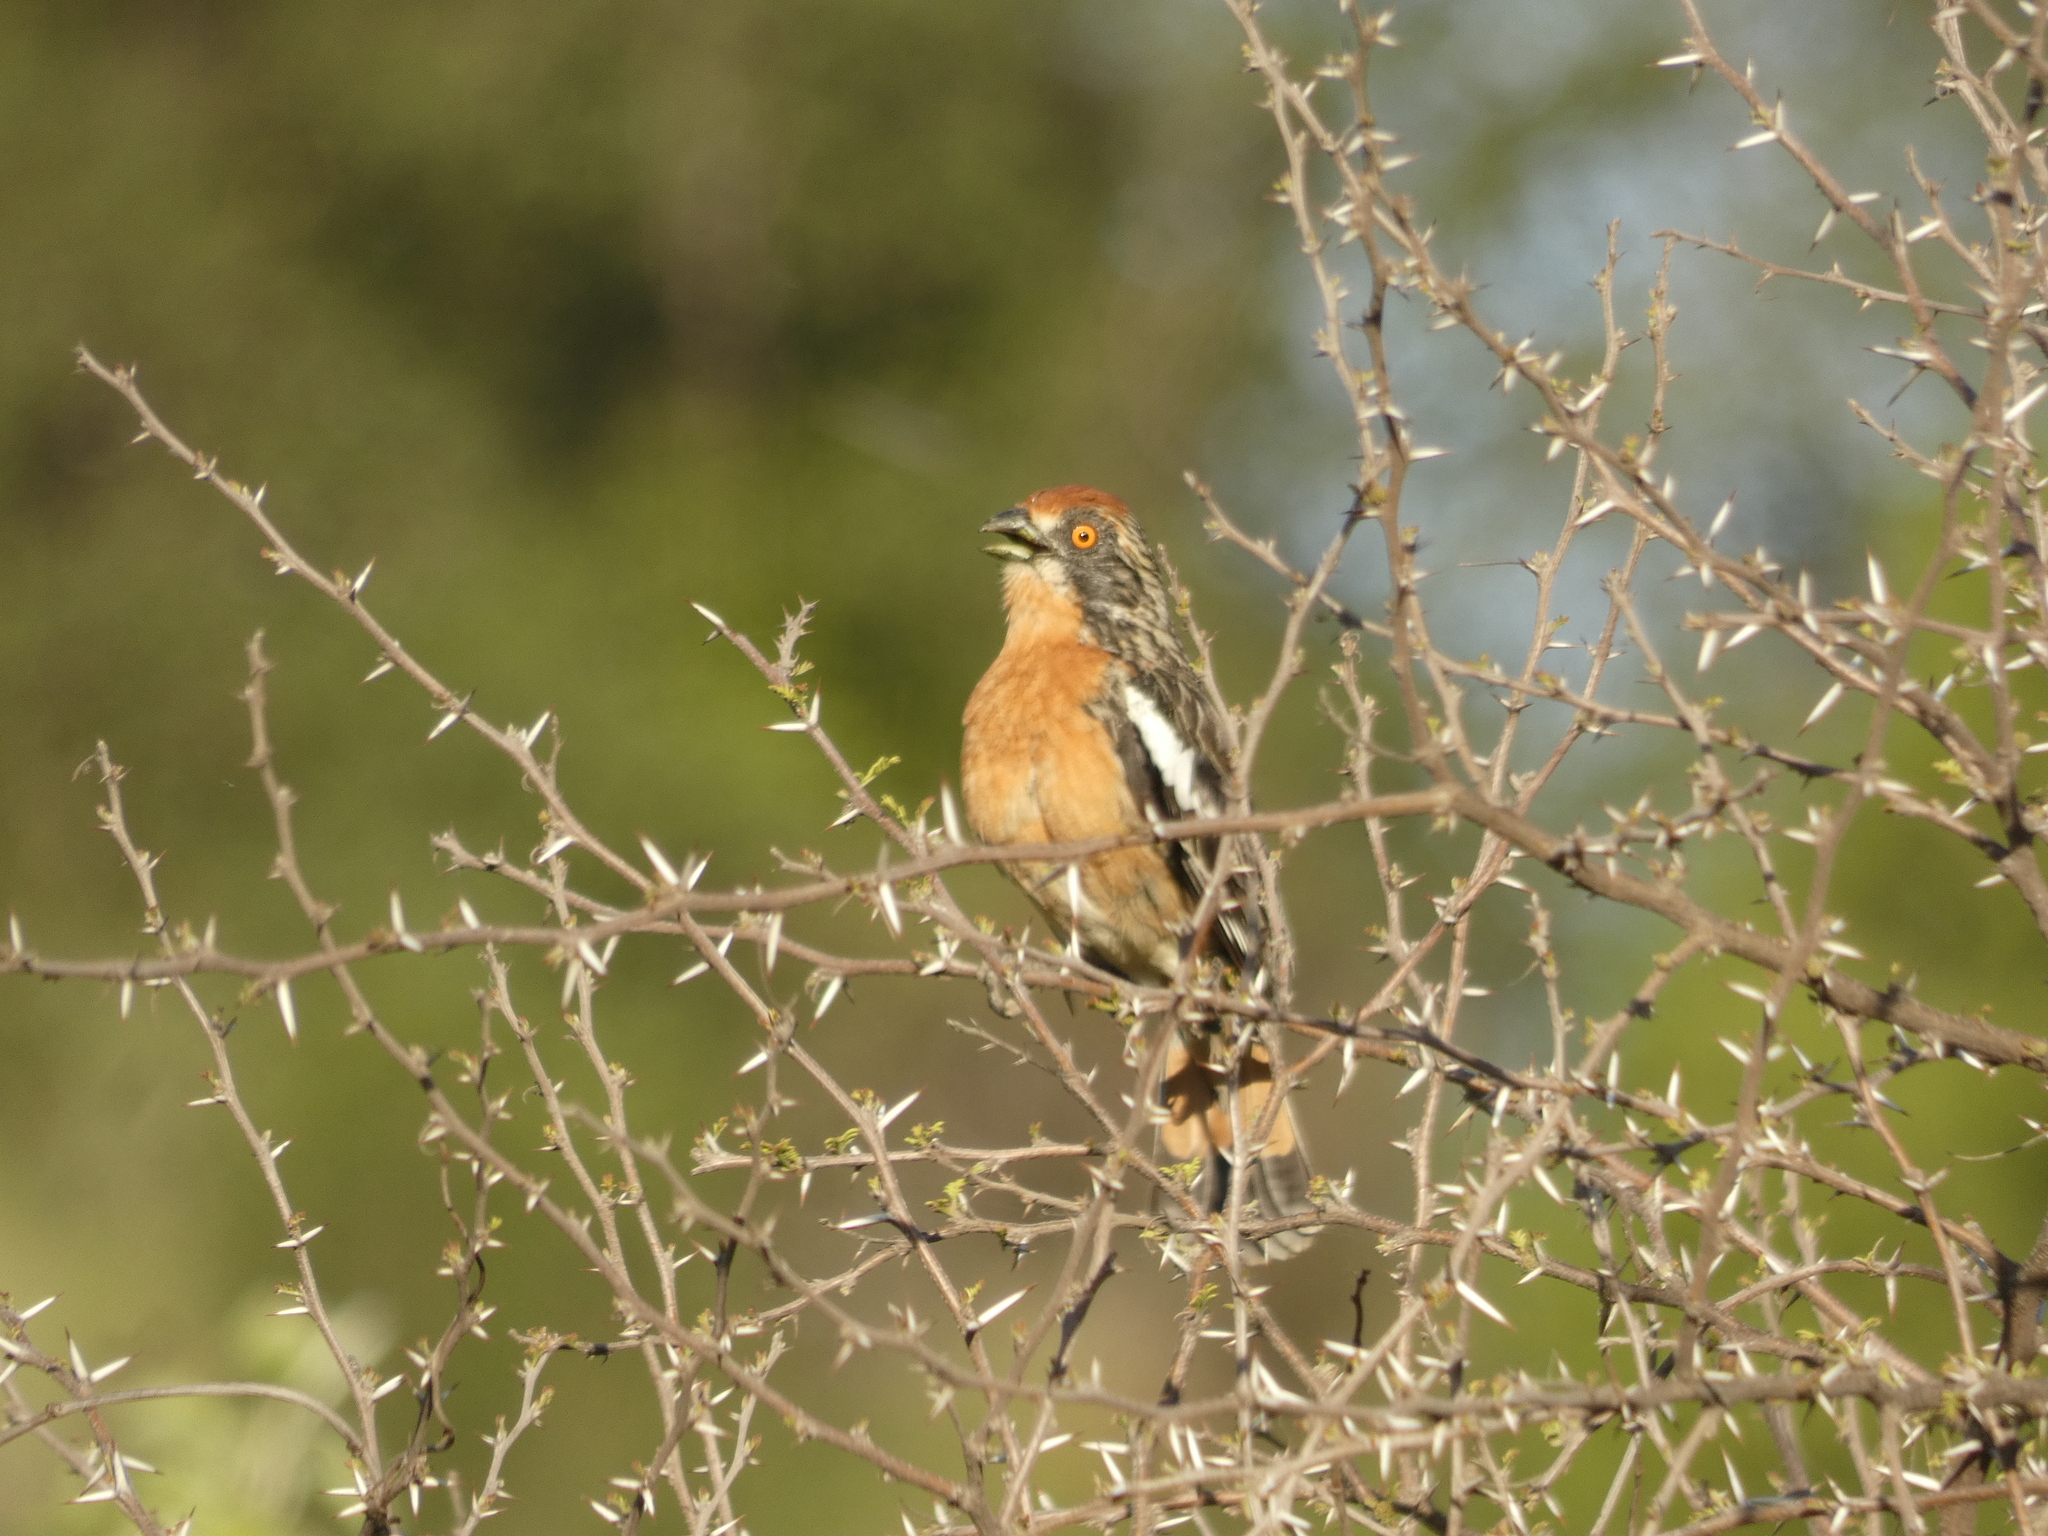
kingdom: Animalia
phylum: Chordata
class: Aves
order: Passeriformes
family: Cotingidae
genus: Phytotoma
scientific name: Phytotoma rara
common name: Rufous-tailed plantcutter
